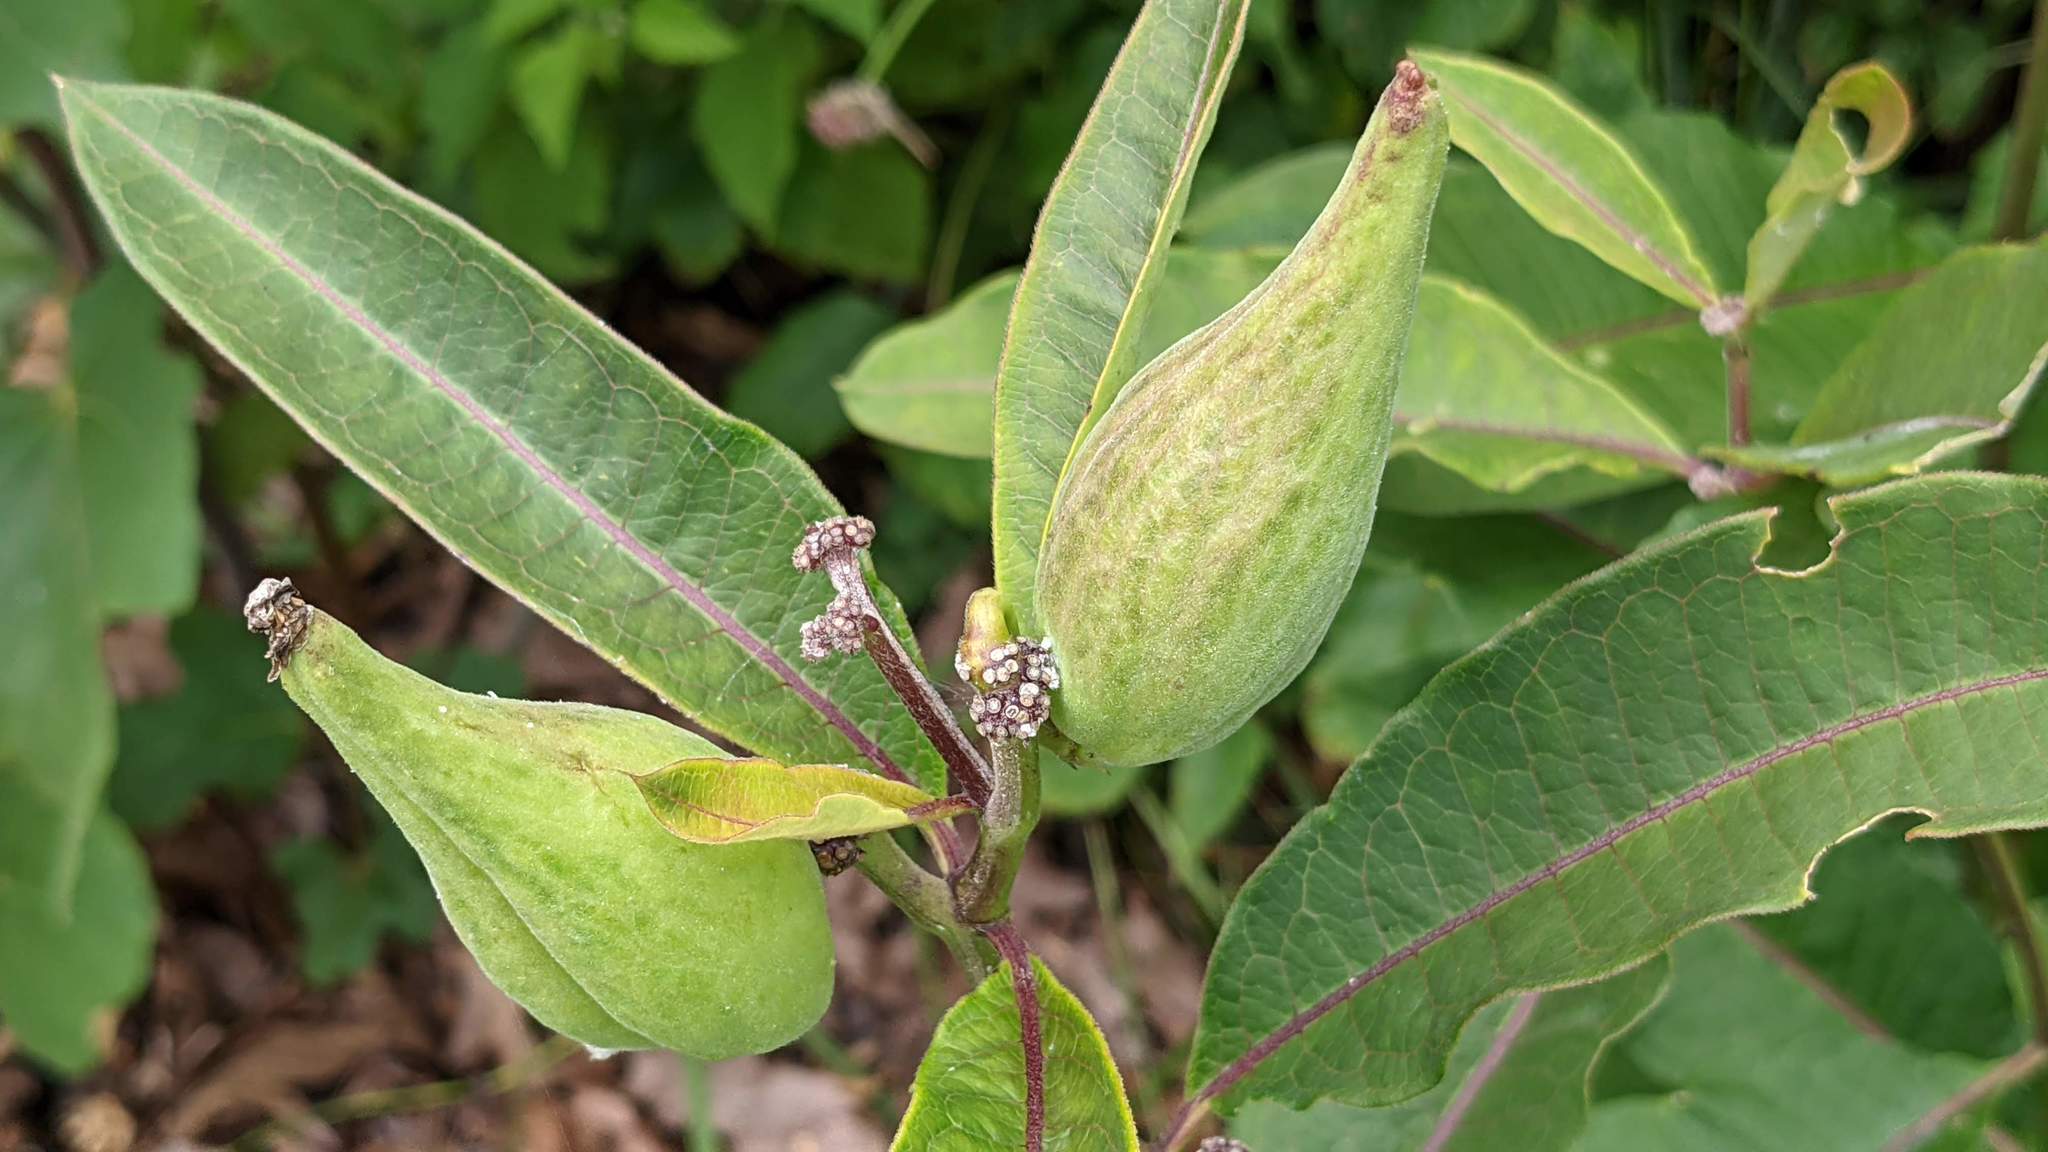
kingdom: Plantae
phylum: Tracheophyta
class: Magnoliopsida
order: Gentianales
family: Apocynaceae
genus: Asclepias
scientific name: Asclepias purpurascens
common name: Purple milkweed
